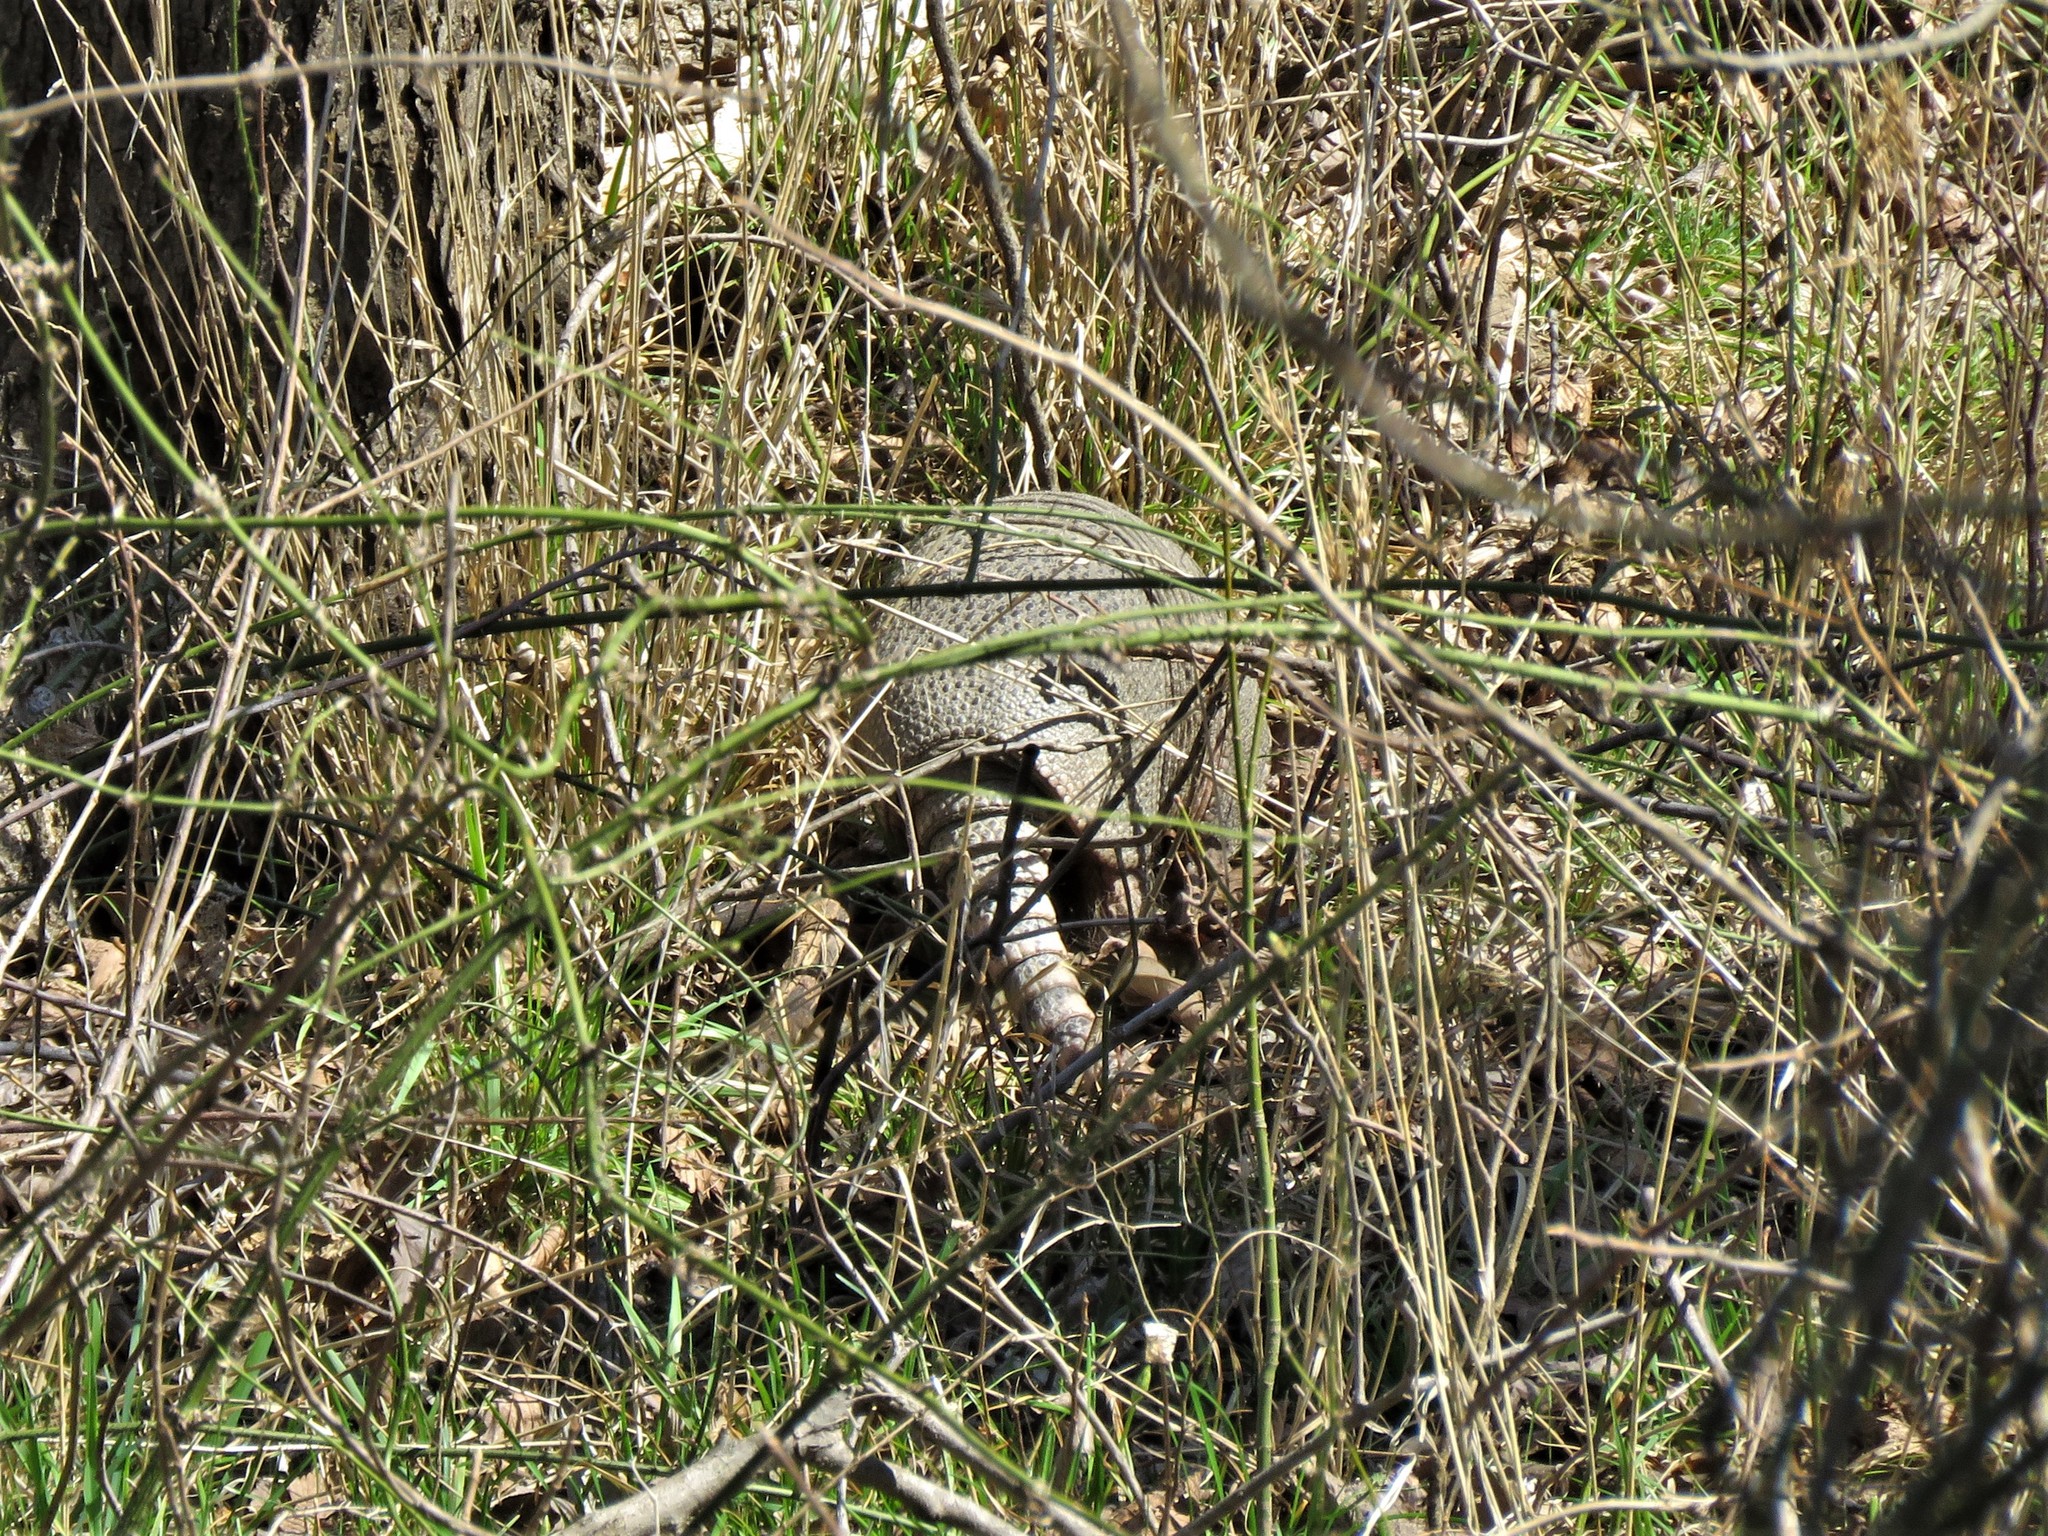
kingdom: Animalia
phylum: Chordata
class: Mammalia
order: Cingulata
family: Dasypodidae
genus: Dasypus
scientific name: Dasypus novemcinctus
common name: Nine-banded armadillo
